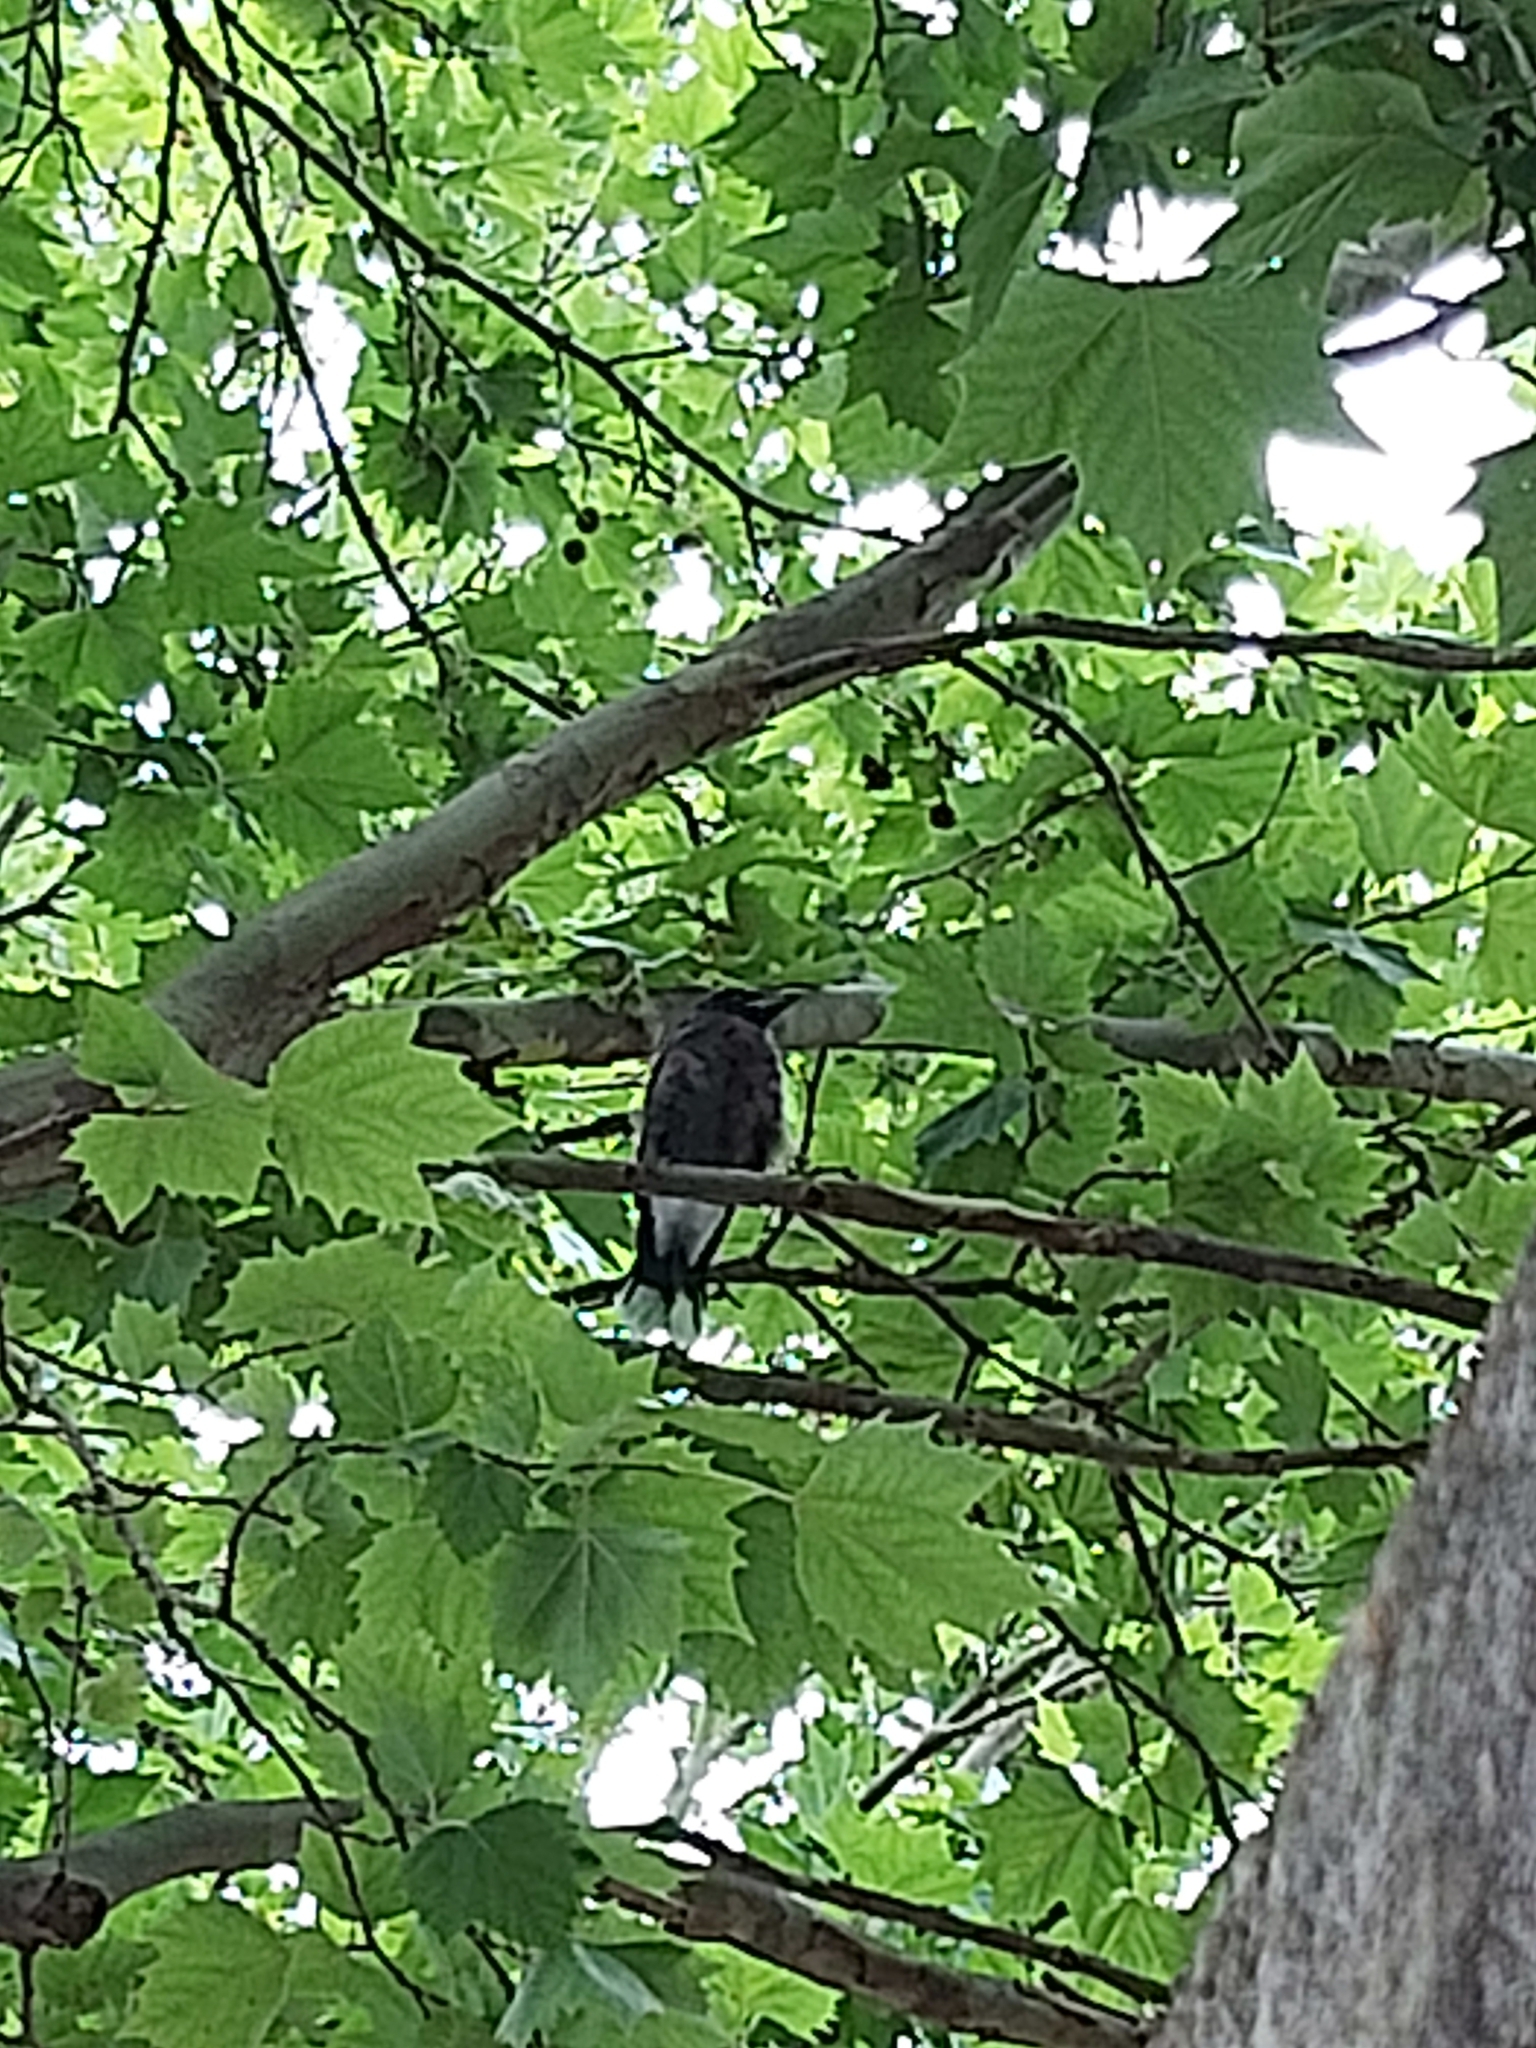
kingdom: Animalia
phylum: Chordata
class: Aves
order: Passeriformes
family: Cracticidae
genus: Gymnorhina
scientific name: Gymnorhina tibicen
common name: Australian magpie
